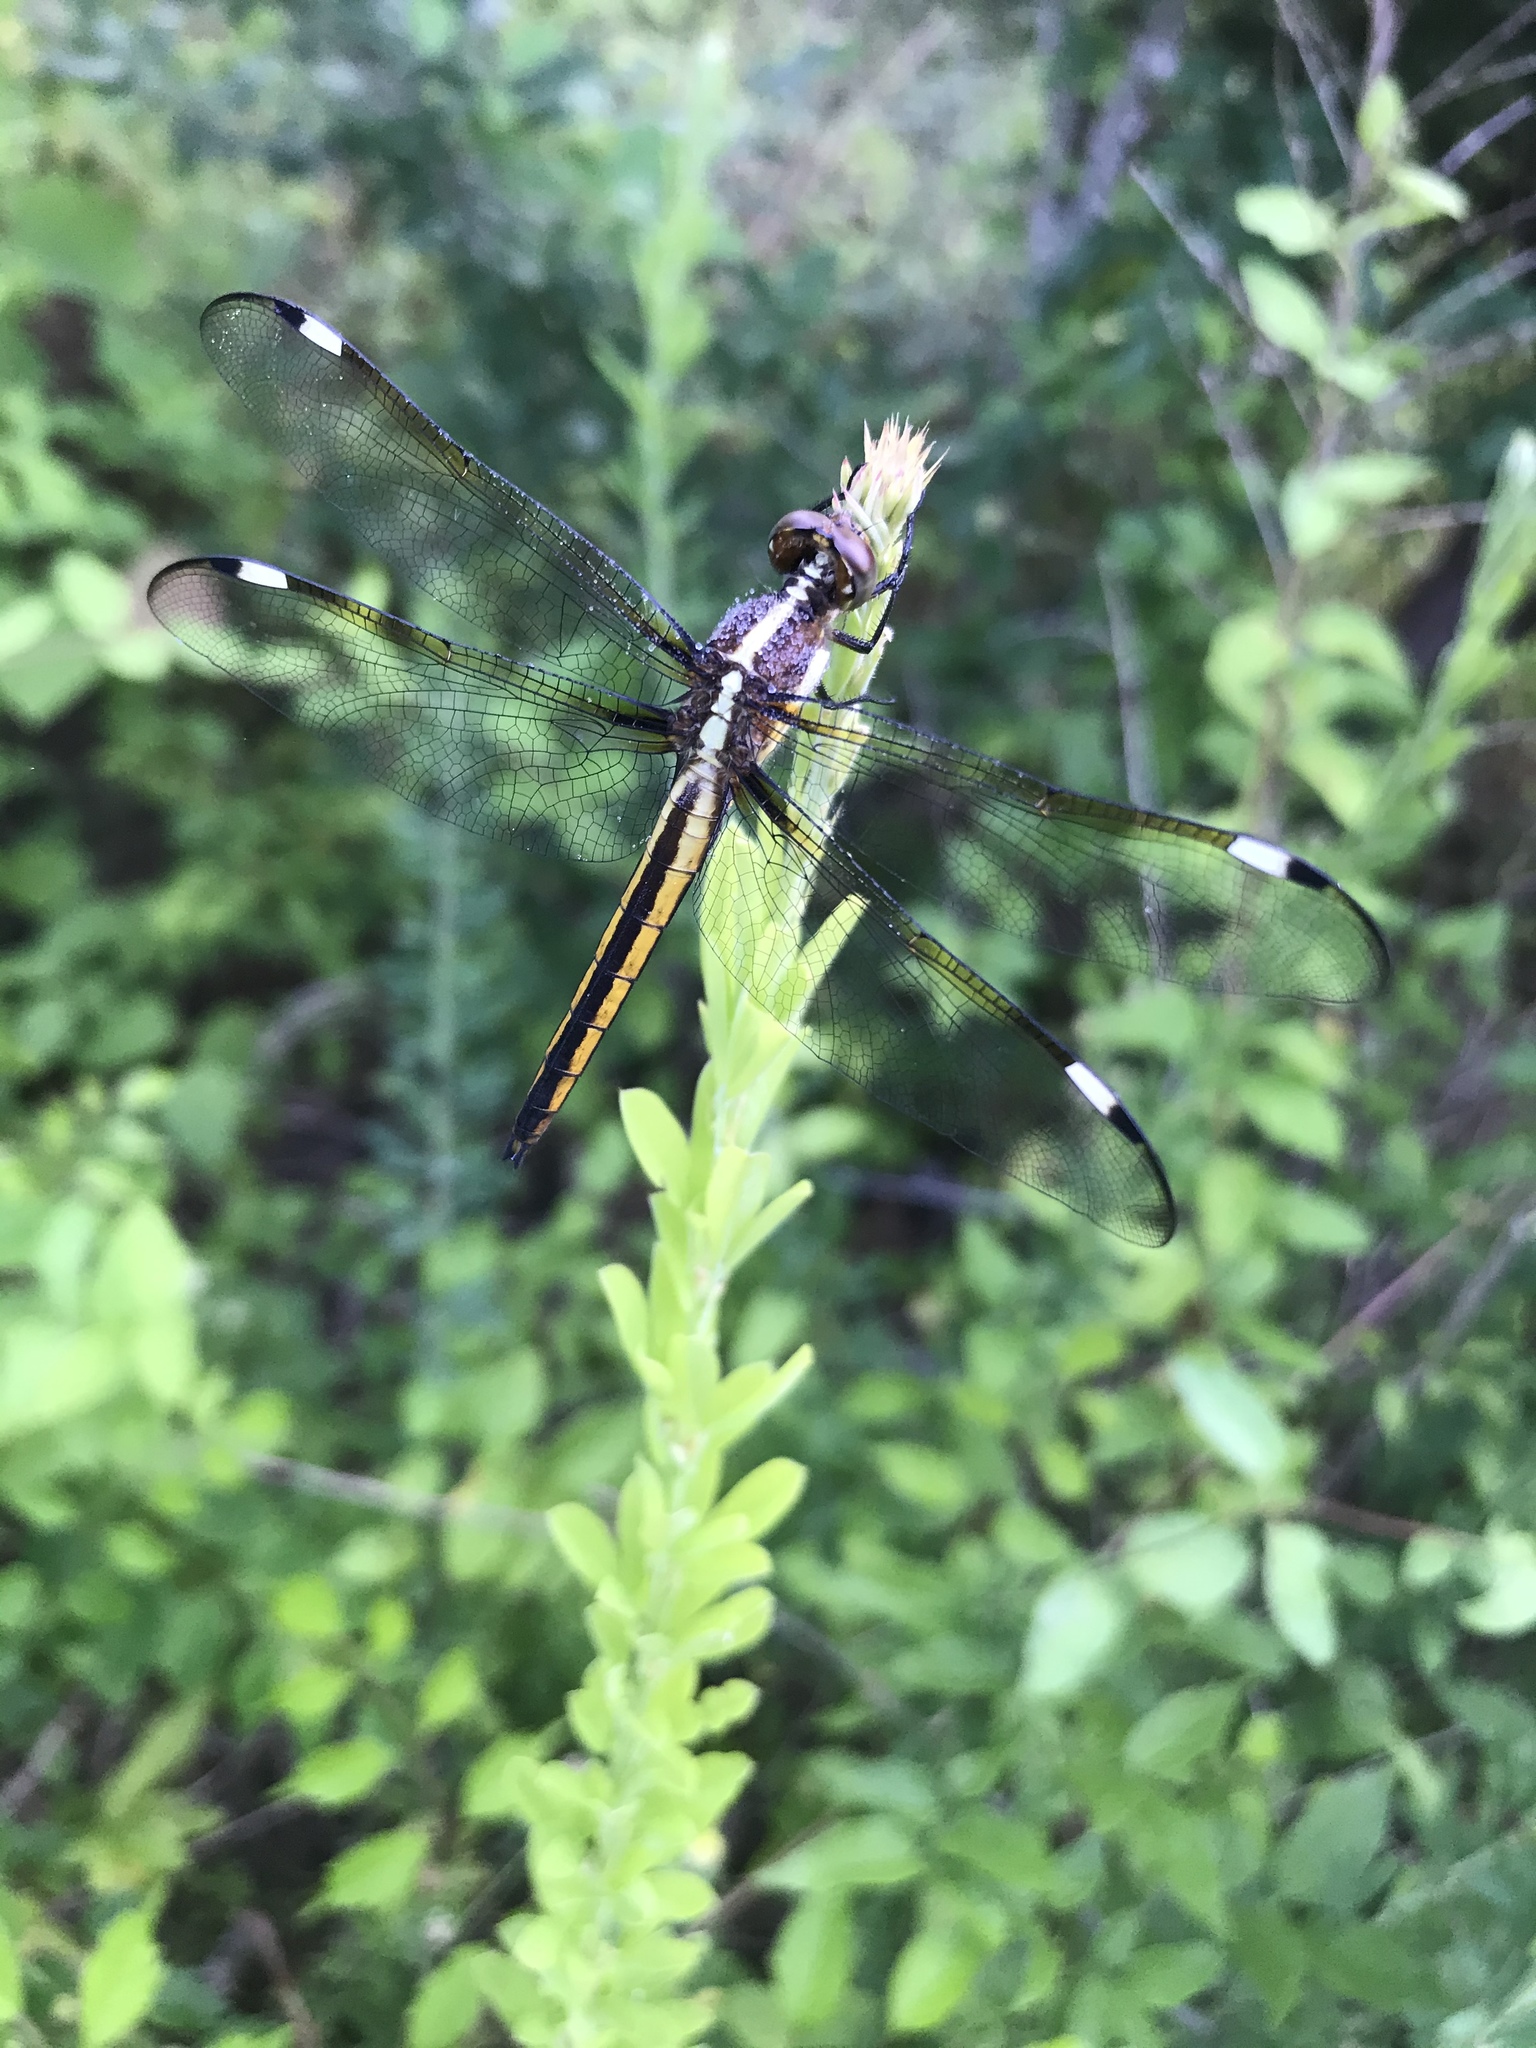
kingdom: Animalia
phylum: Arthropoda
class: Insecta
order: Odonata
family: Libellulidae
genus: Libellula
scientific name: Libellula cyanea
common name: Spangled skimmer
